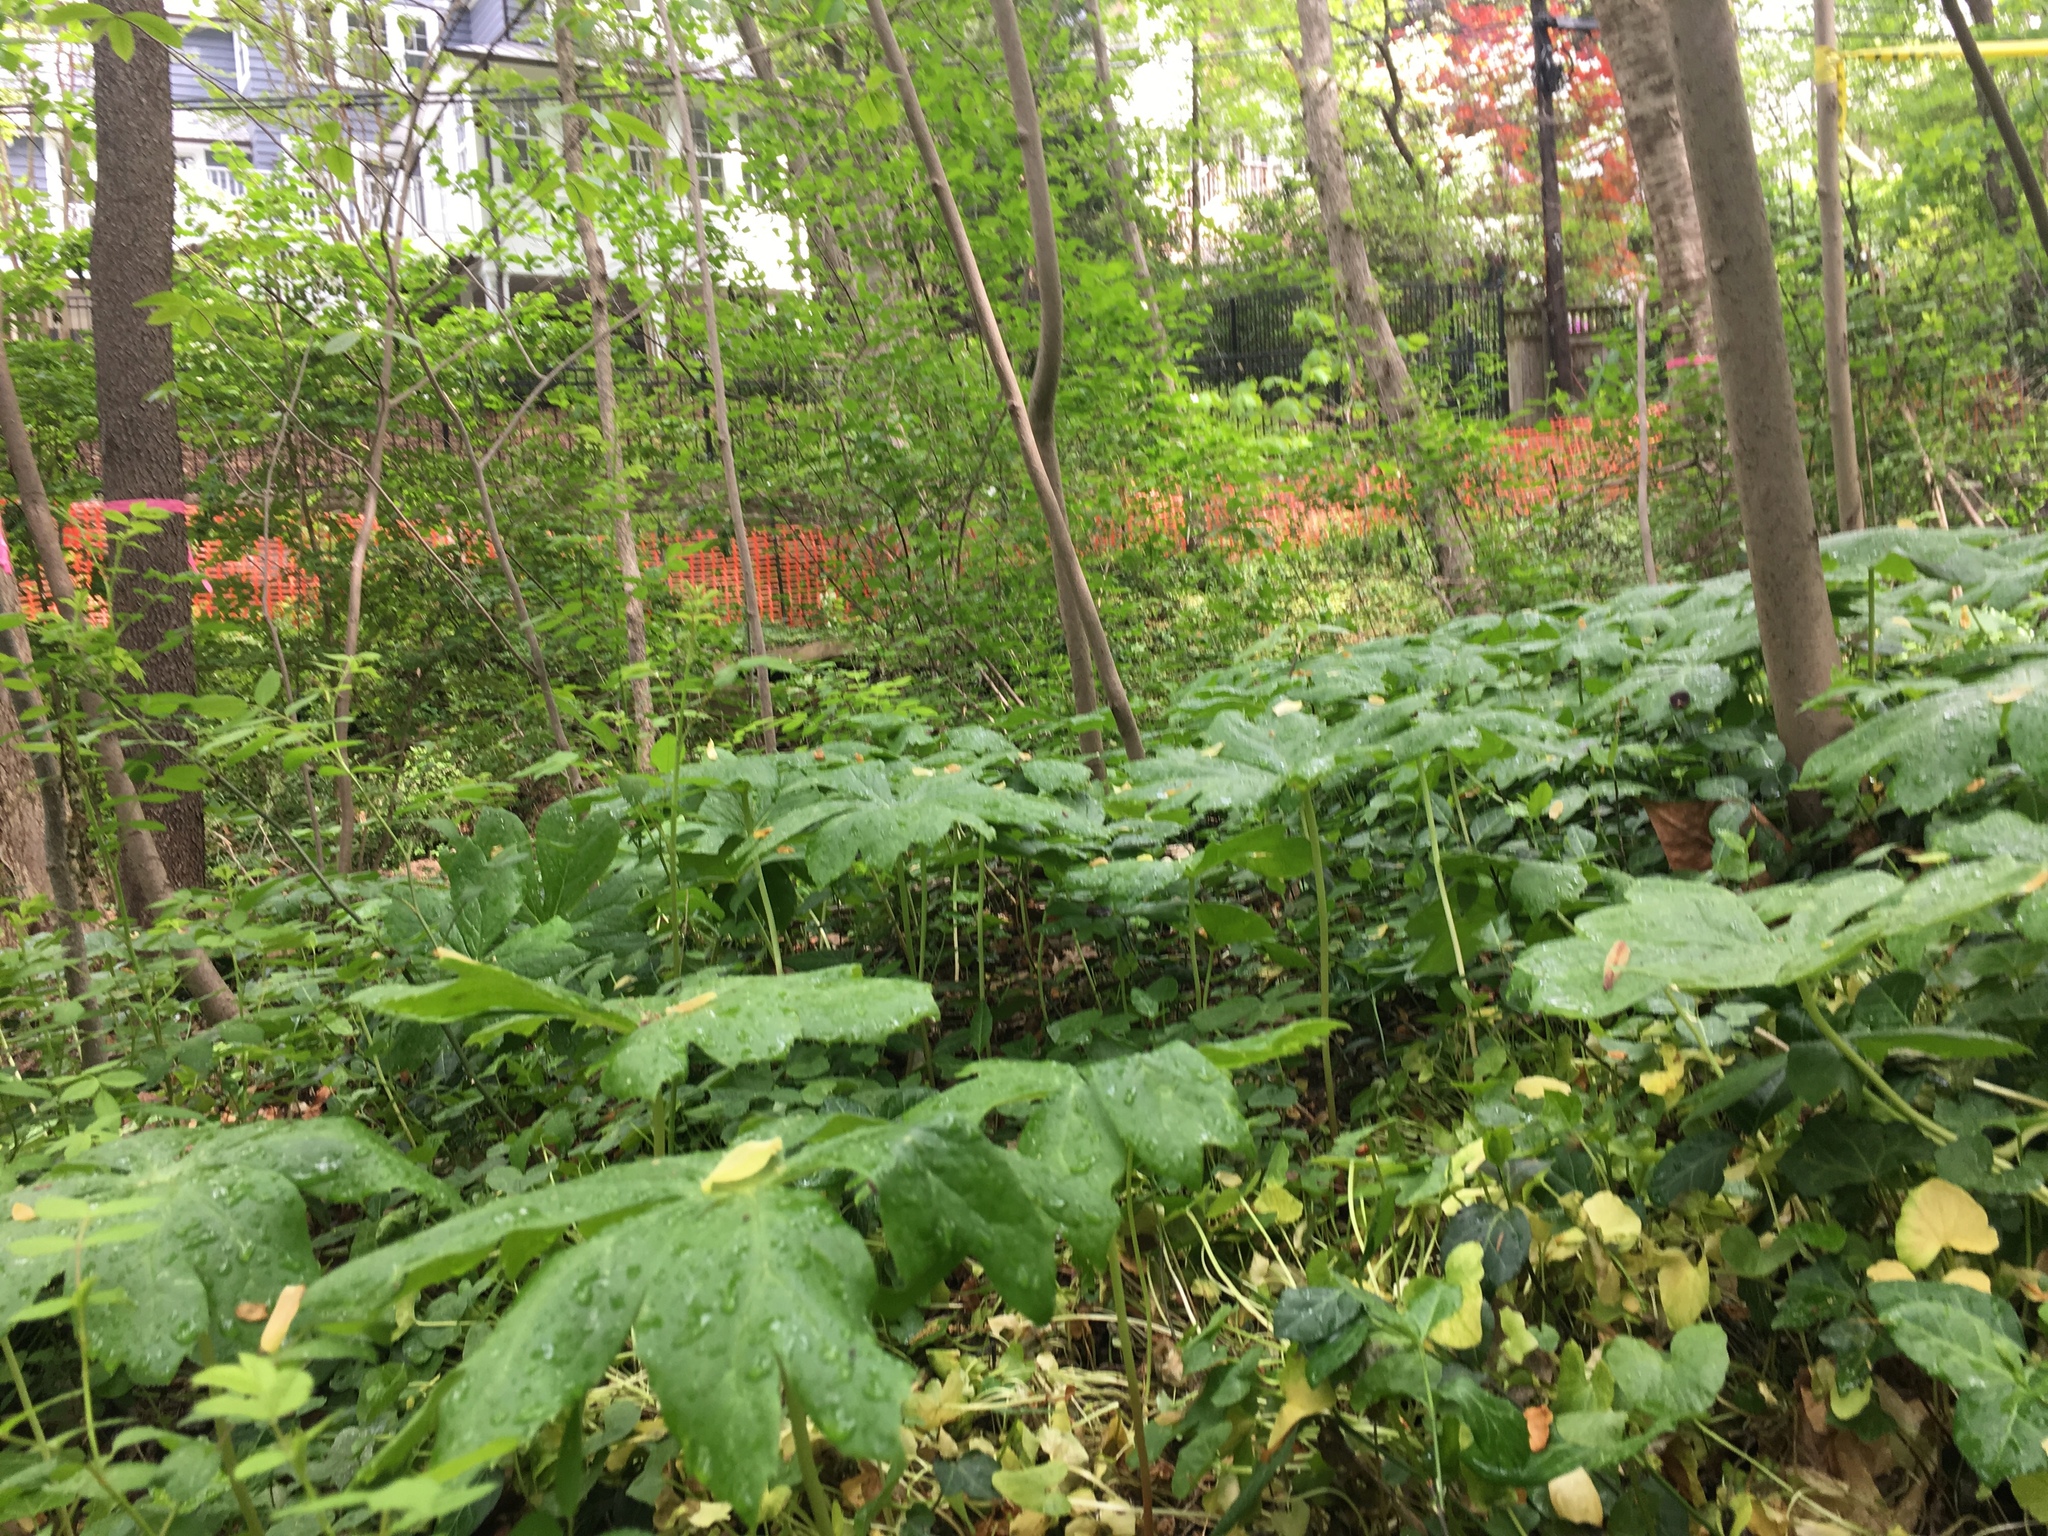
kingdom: Plantae
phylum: Tracheophyta
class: Magnoliopsida
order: Ranunculales
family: Berberidaceae
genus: Podophyllum
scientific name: Podophyllum peltatum
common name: Wild mandrake
